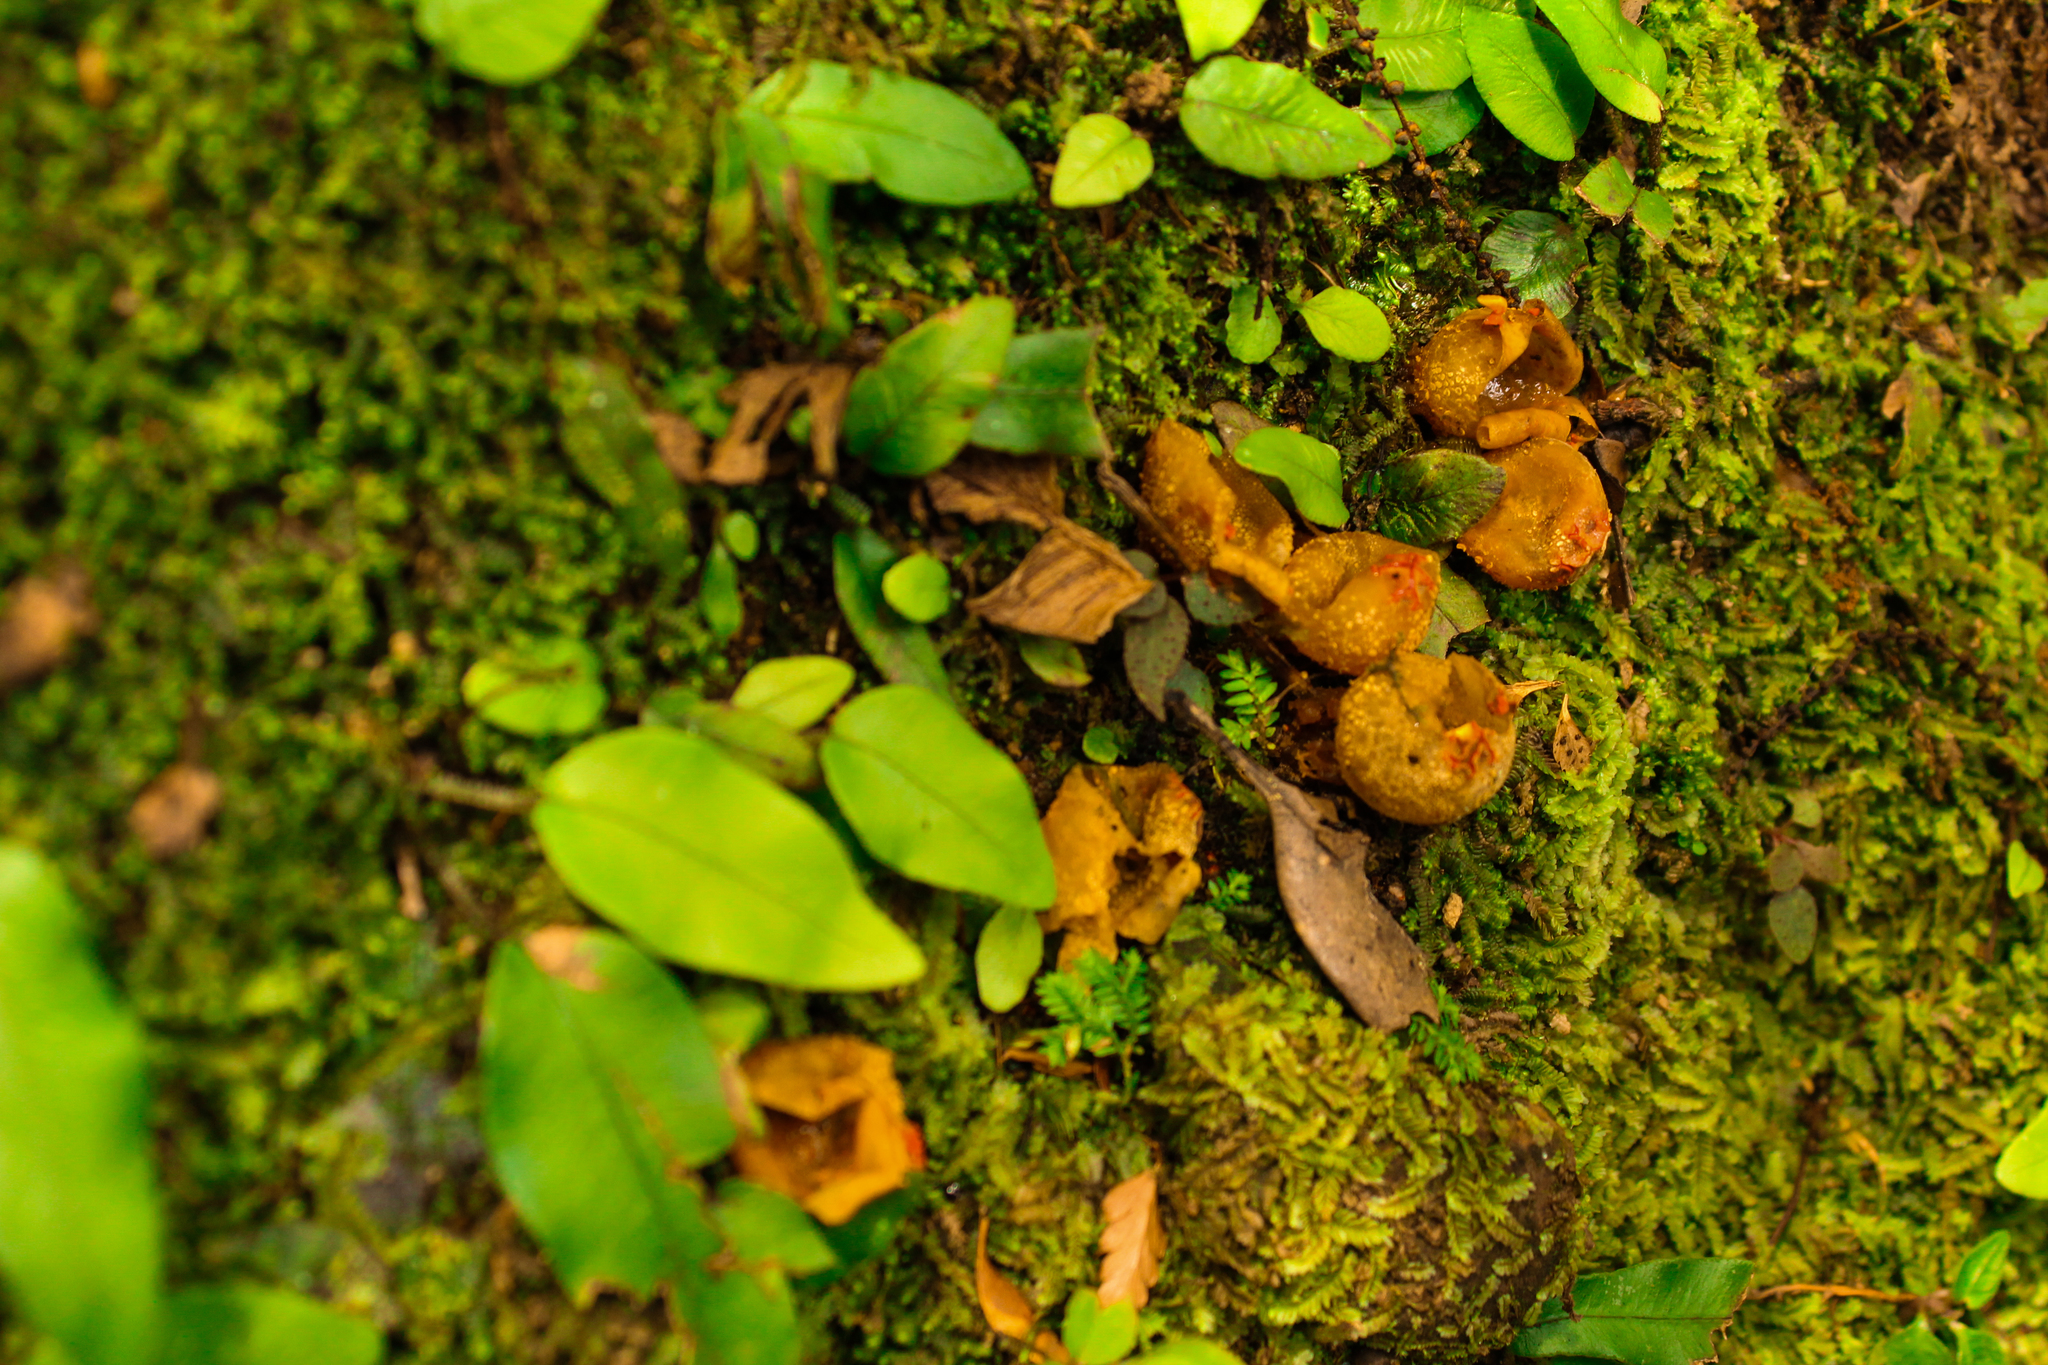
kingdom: Fungi
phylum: Basidiomycota
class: Agaricomycetes
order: Boletales
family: Calostomataceae
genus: Calostoma
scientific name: Calostoma japonicum
